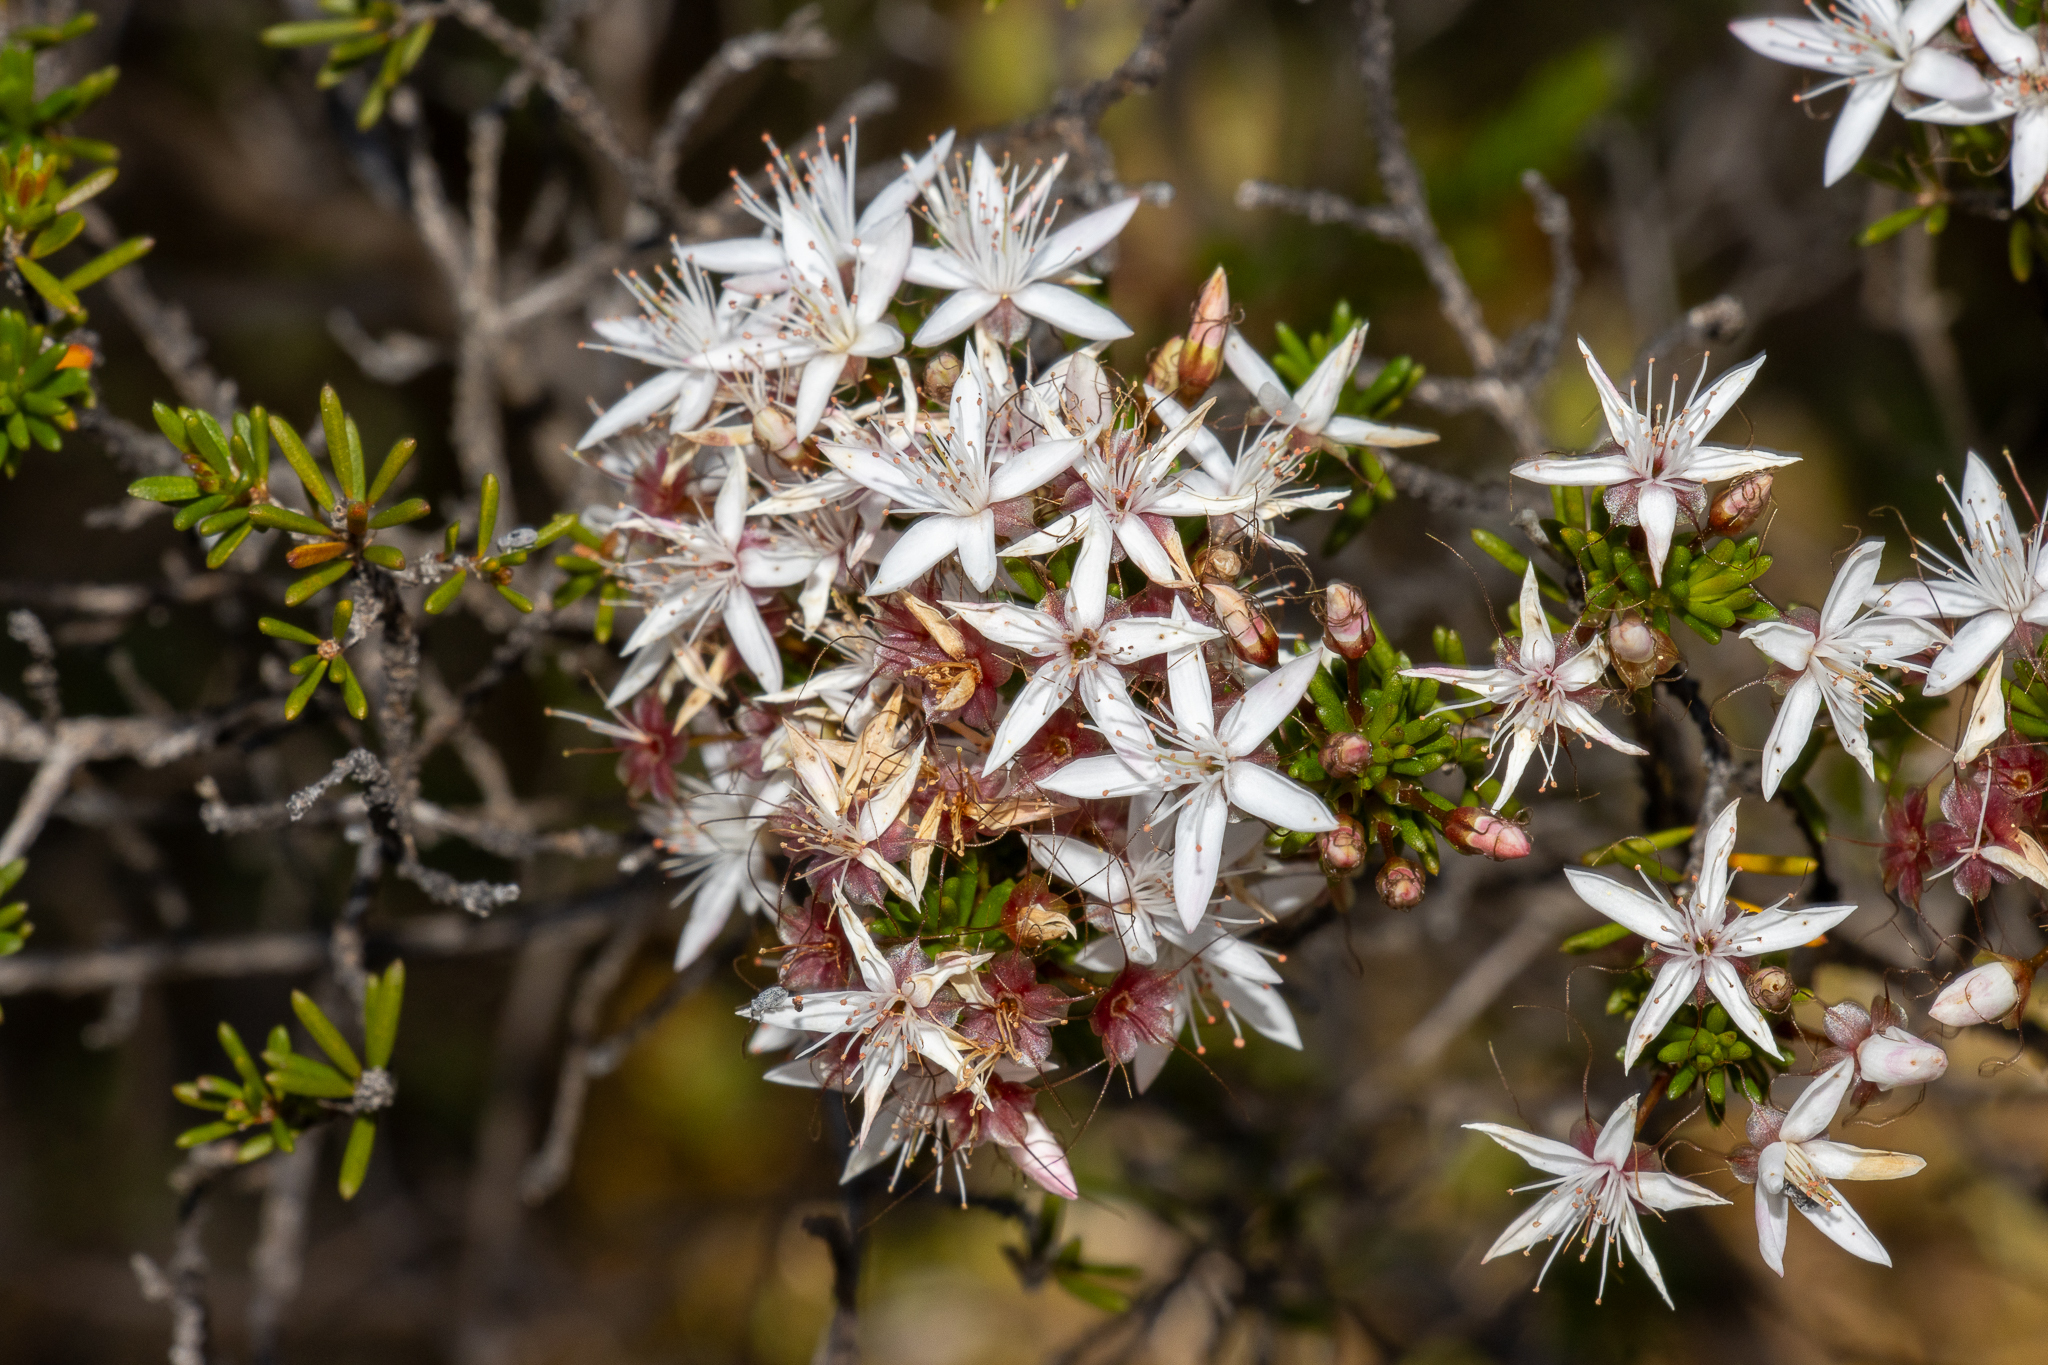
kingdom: Plantae
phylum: Tracheophyta
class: Magnoliopsida
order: Myrtales
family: Myrtaceae
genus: Calytrix
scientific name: Calytrix tetragona
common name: Common fringe myrtle
